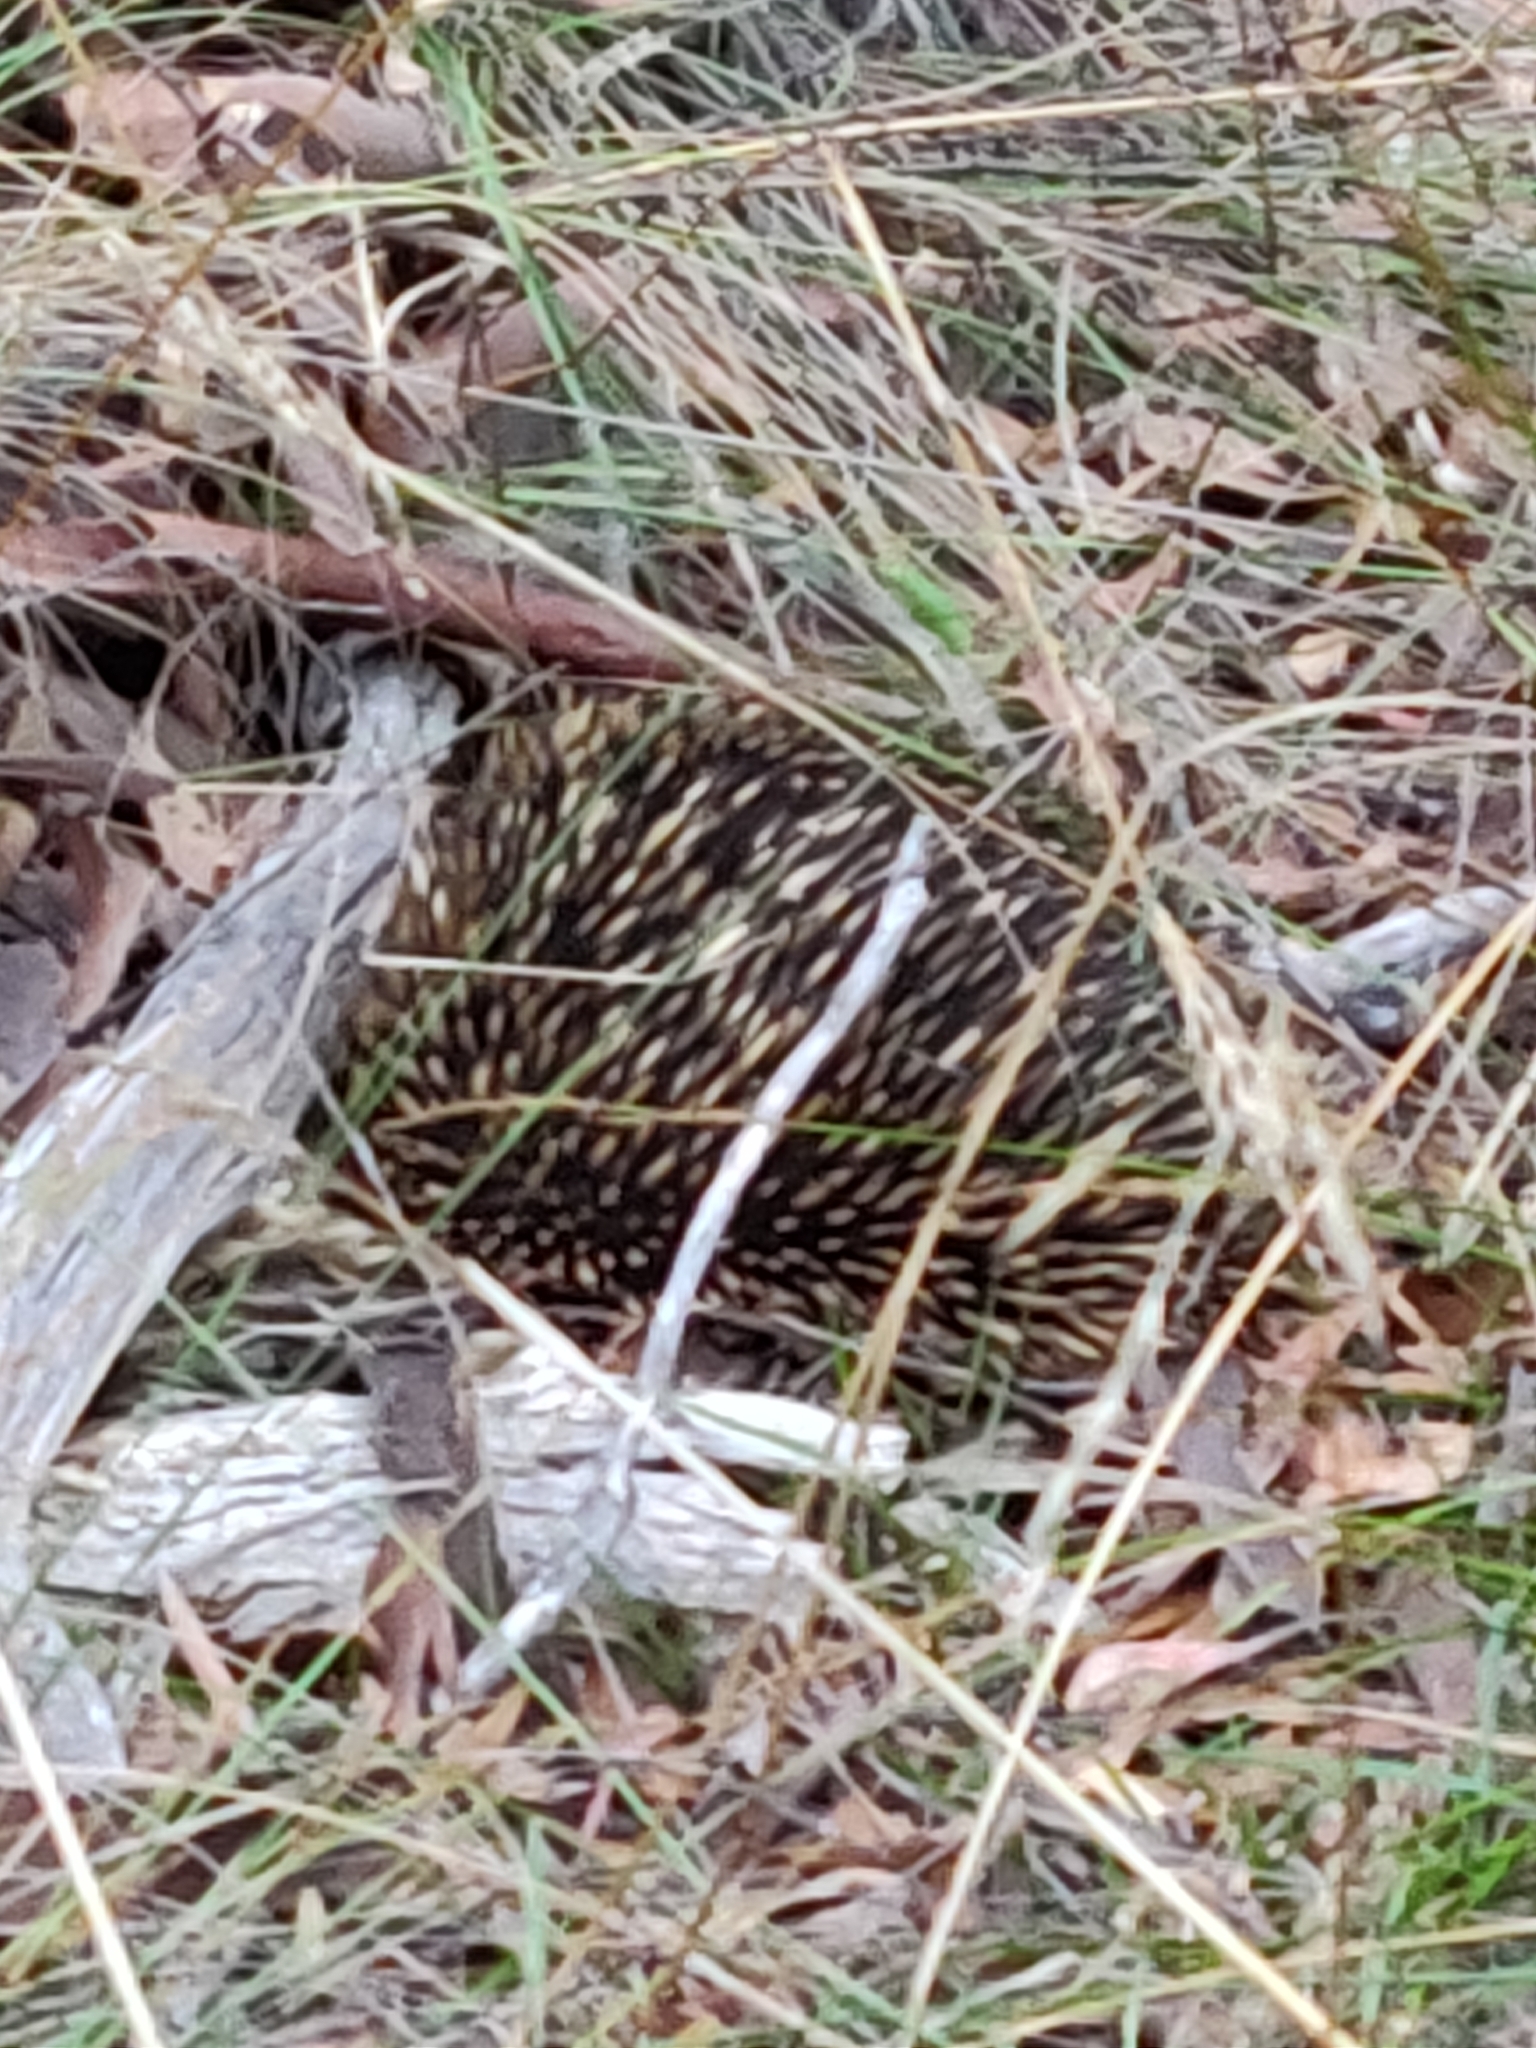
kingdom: Animalia
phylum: Chordata
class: Mammalia
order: Monotremata
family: Tachyglossidae
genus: Tachyglossus
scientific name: Tachyglossus aculeatus
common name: Short-beaked echidna
